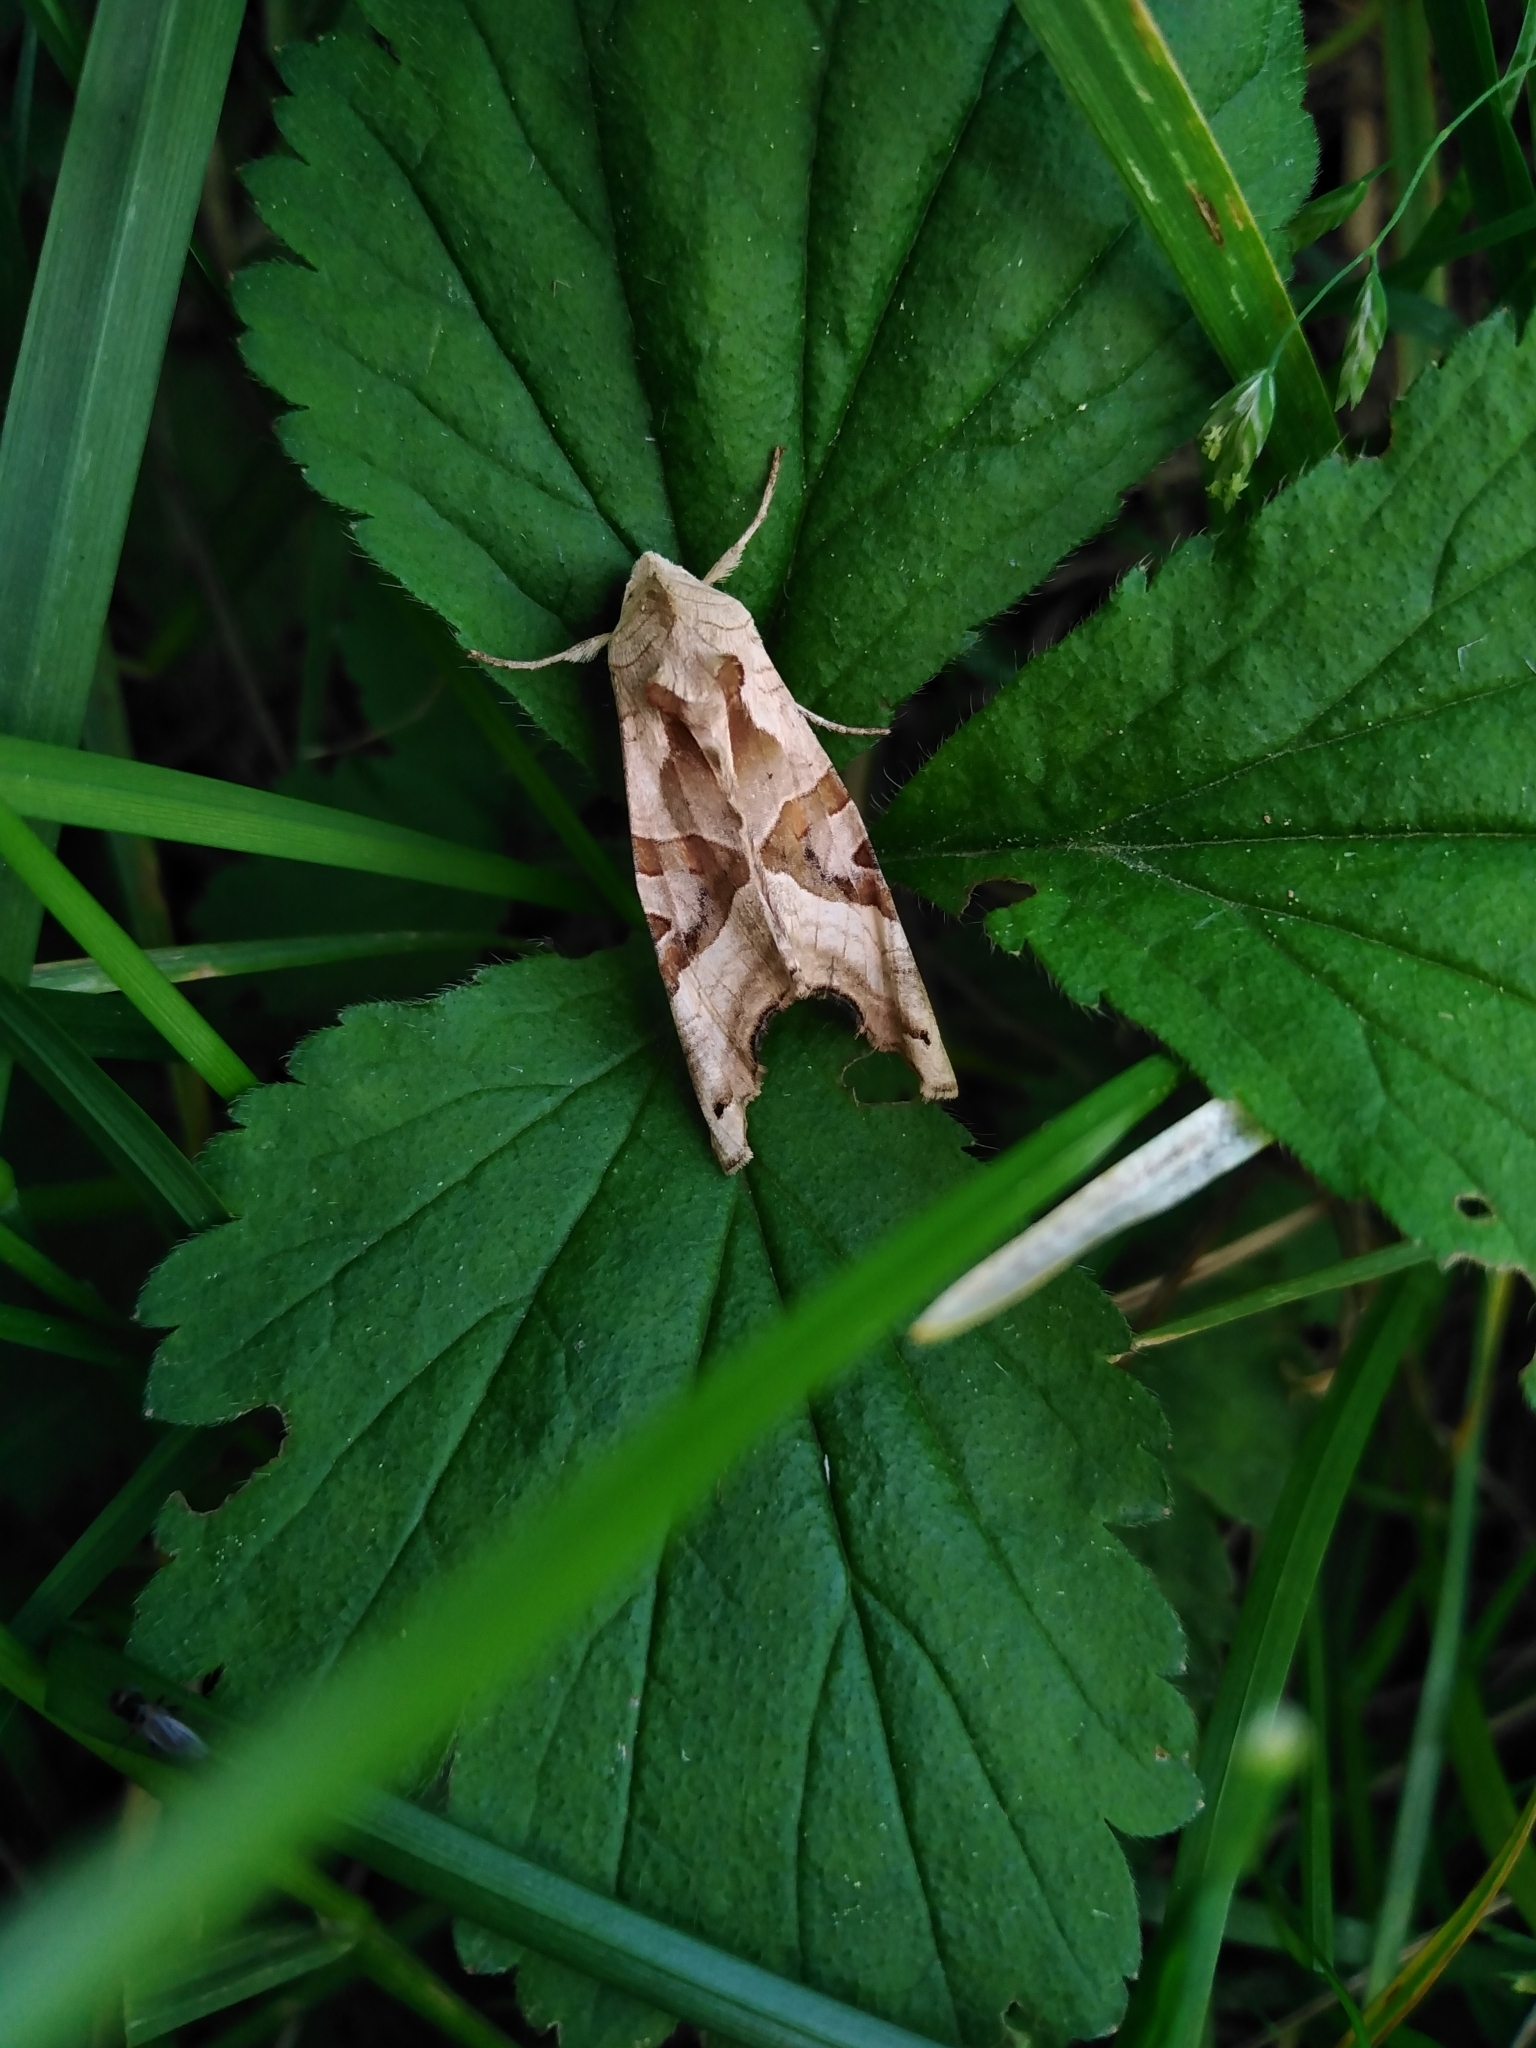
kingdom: Animalia
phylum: Arthropoda
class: Insecta
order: Lepidoptera
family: Noctuidae
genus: Phlogophora
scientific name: Phlogophora meticulosa
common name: Angle shades
